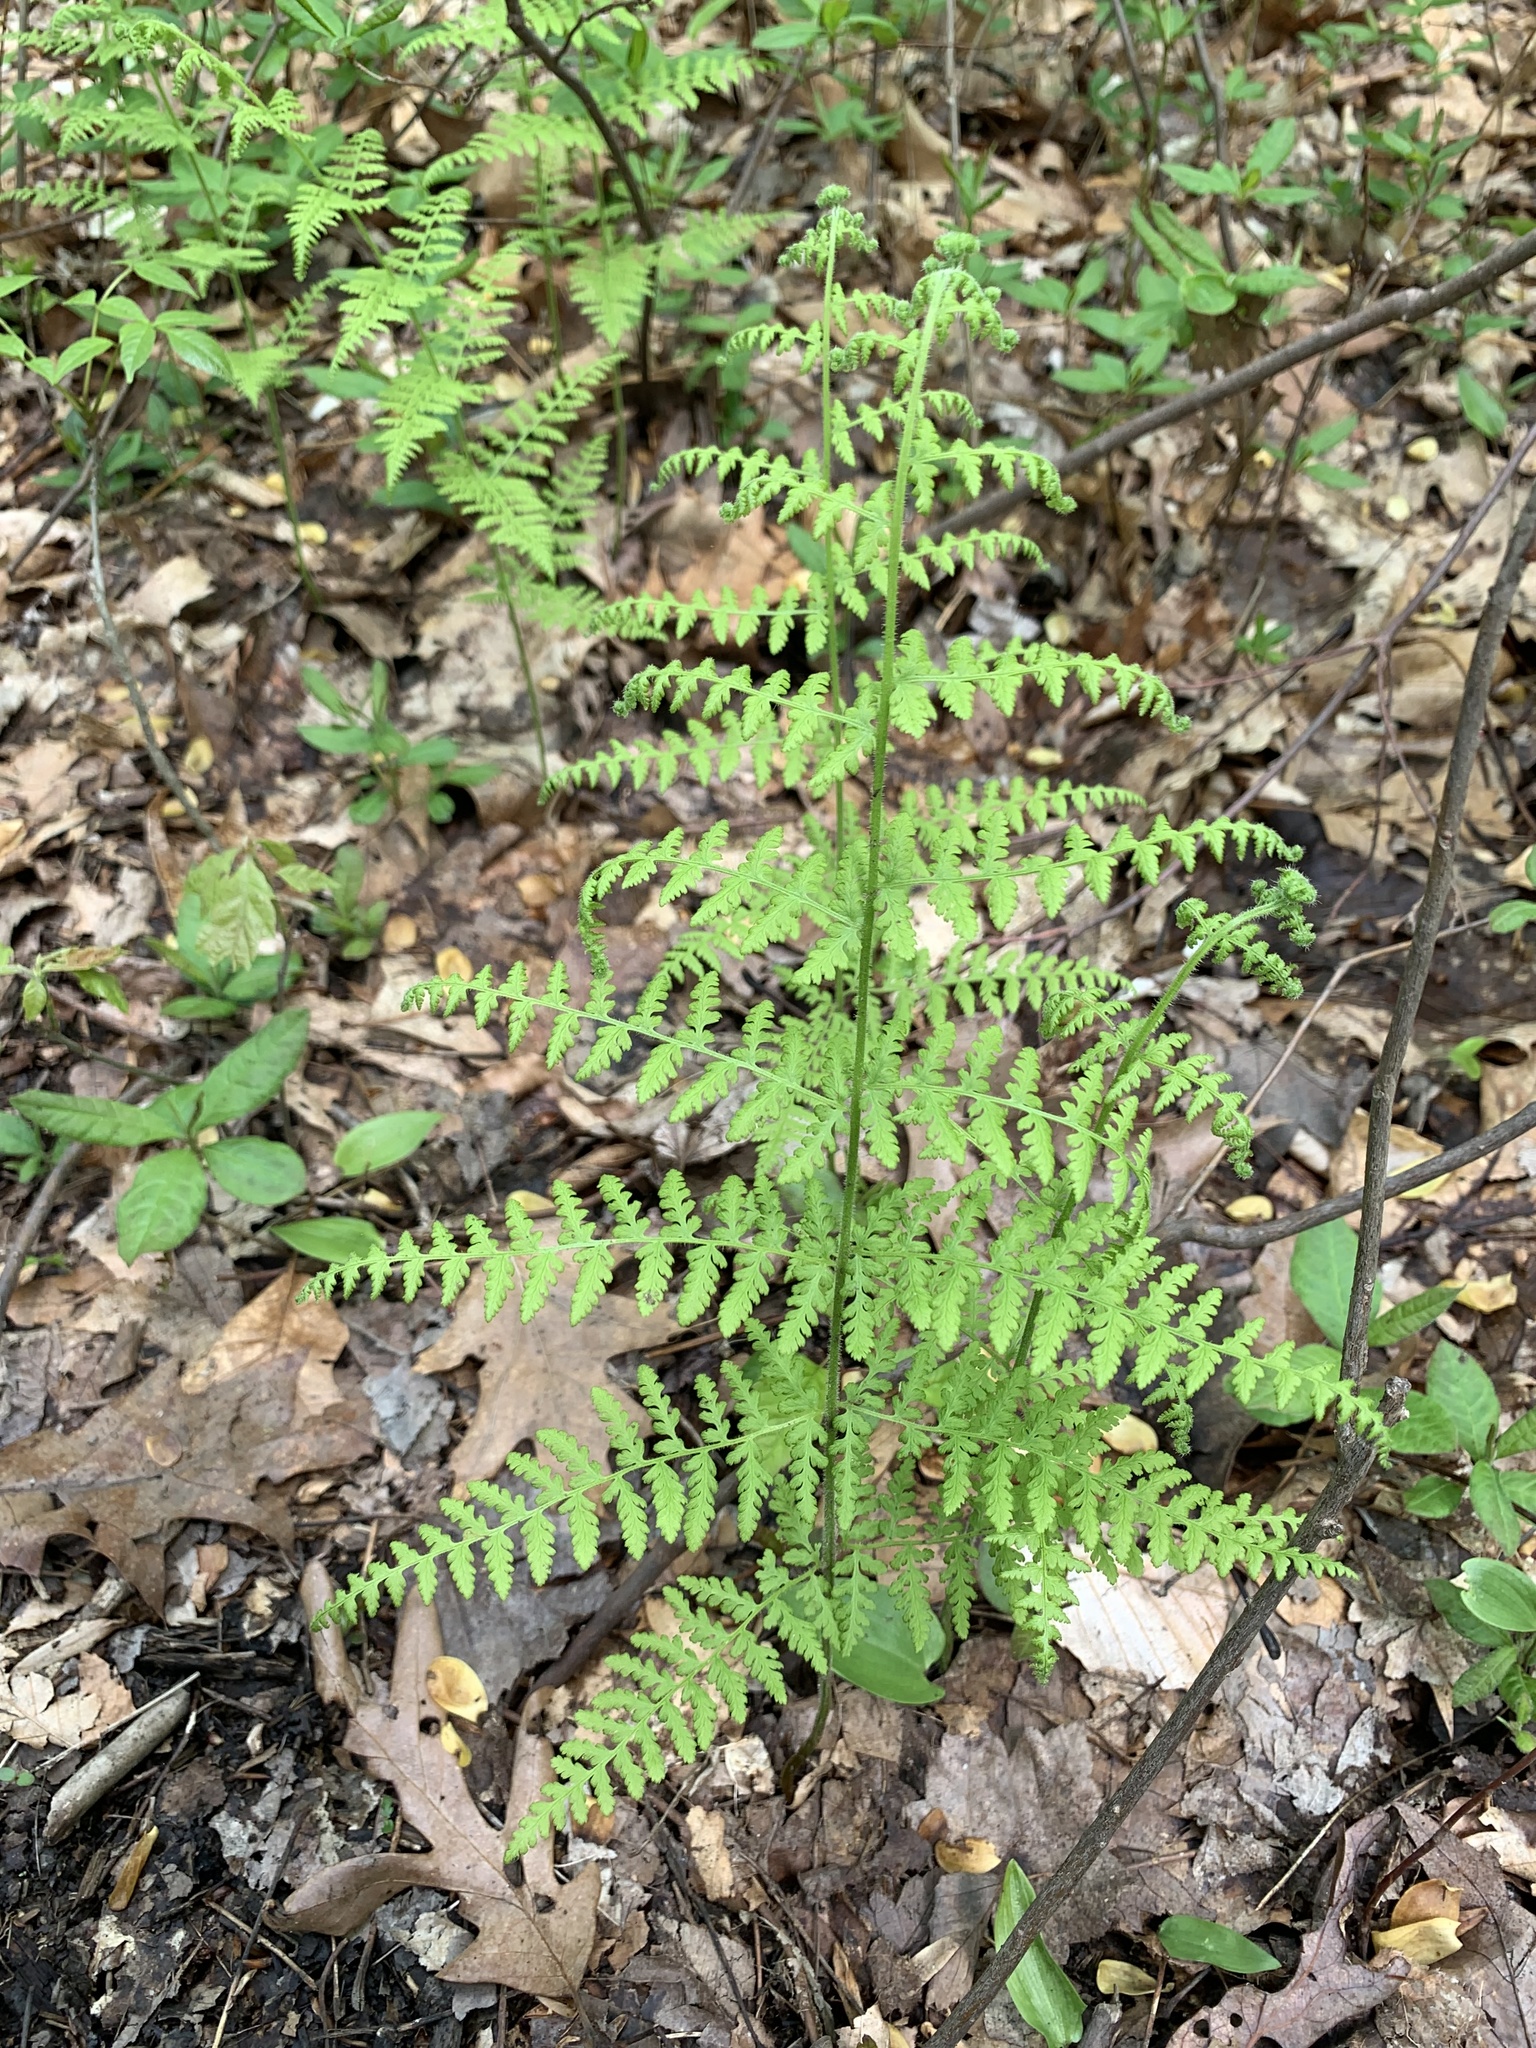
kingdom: Plantae
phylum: Tracheophyta
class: Polypodiopsida
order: Polypodiales
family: Dennstaedtiaceae
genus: Sitobolium
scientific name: Sitobolium punctilobum
